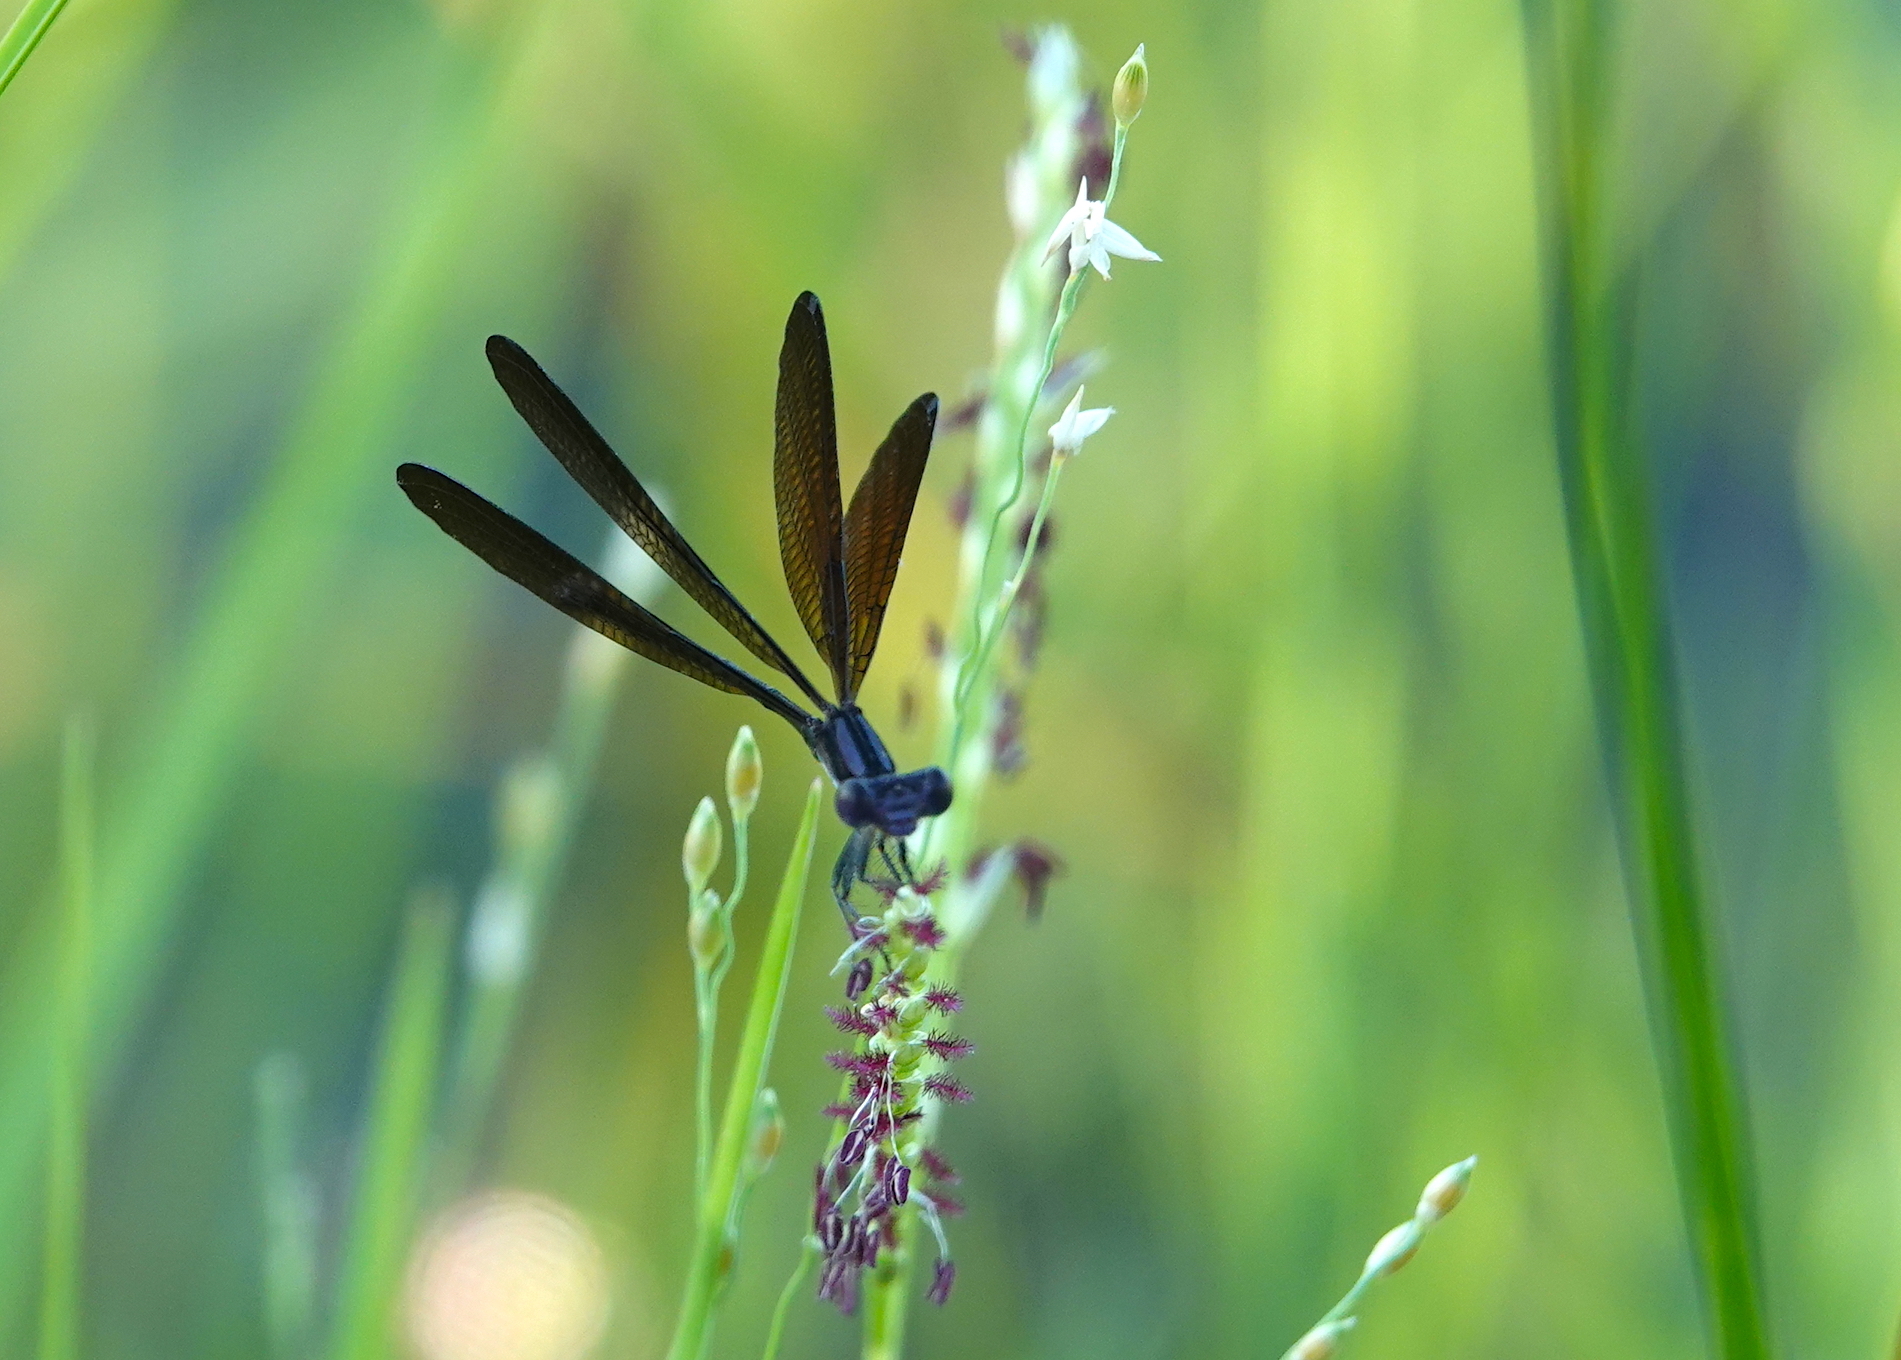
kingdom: Animalia
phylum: Arthropoda
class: Insecta
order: Odonata
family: Coenagrionidae
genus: Argia
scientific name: Argia fumipennis
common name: Variable dancer
